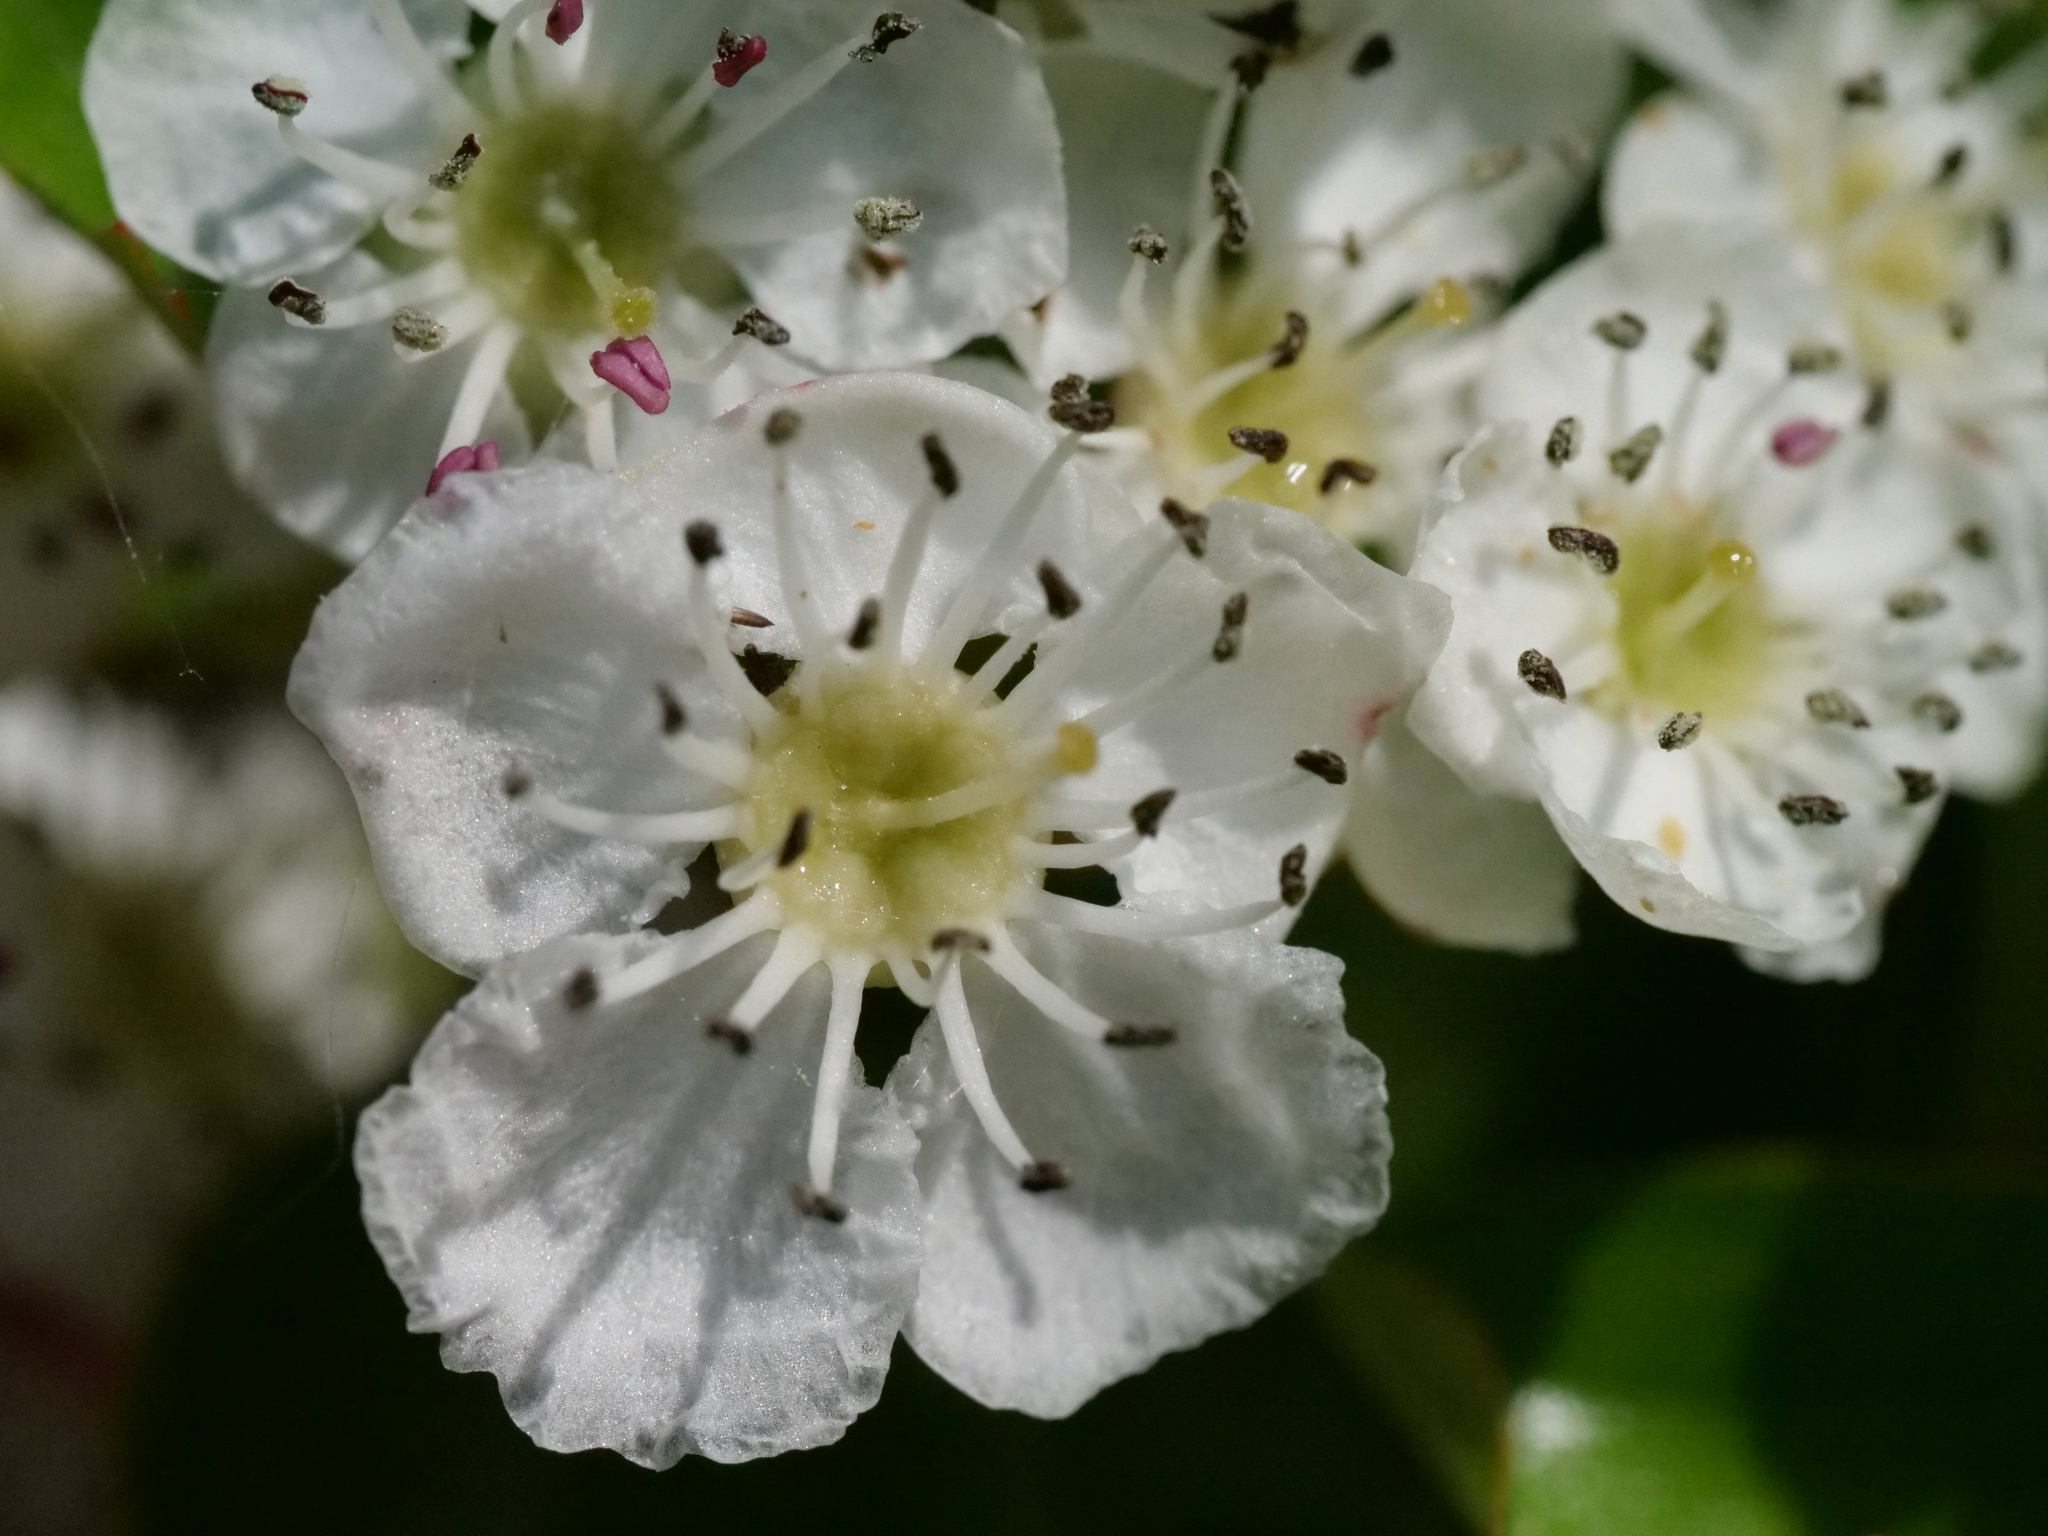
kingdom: Plantae
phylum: Tracheophyta
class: Magnoliopsida
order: Rosales
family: Rosaceae
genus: Crataegus
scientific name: Crataegus monogyna
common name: Hawthorn
